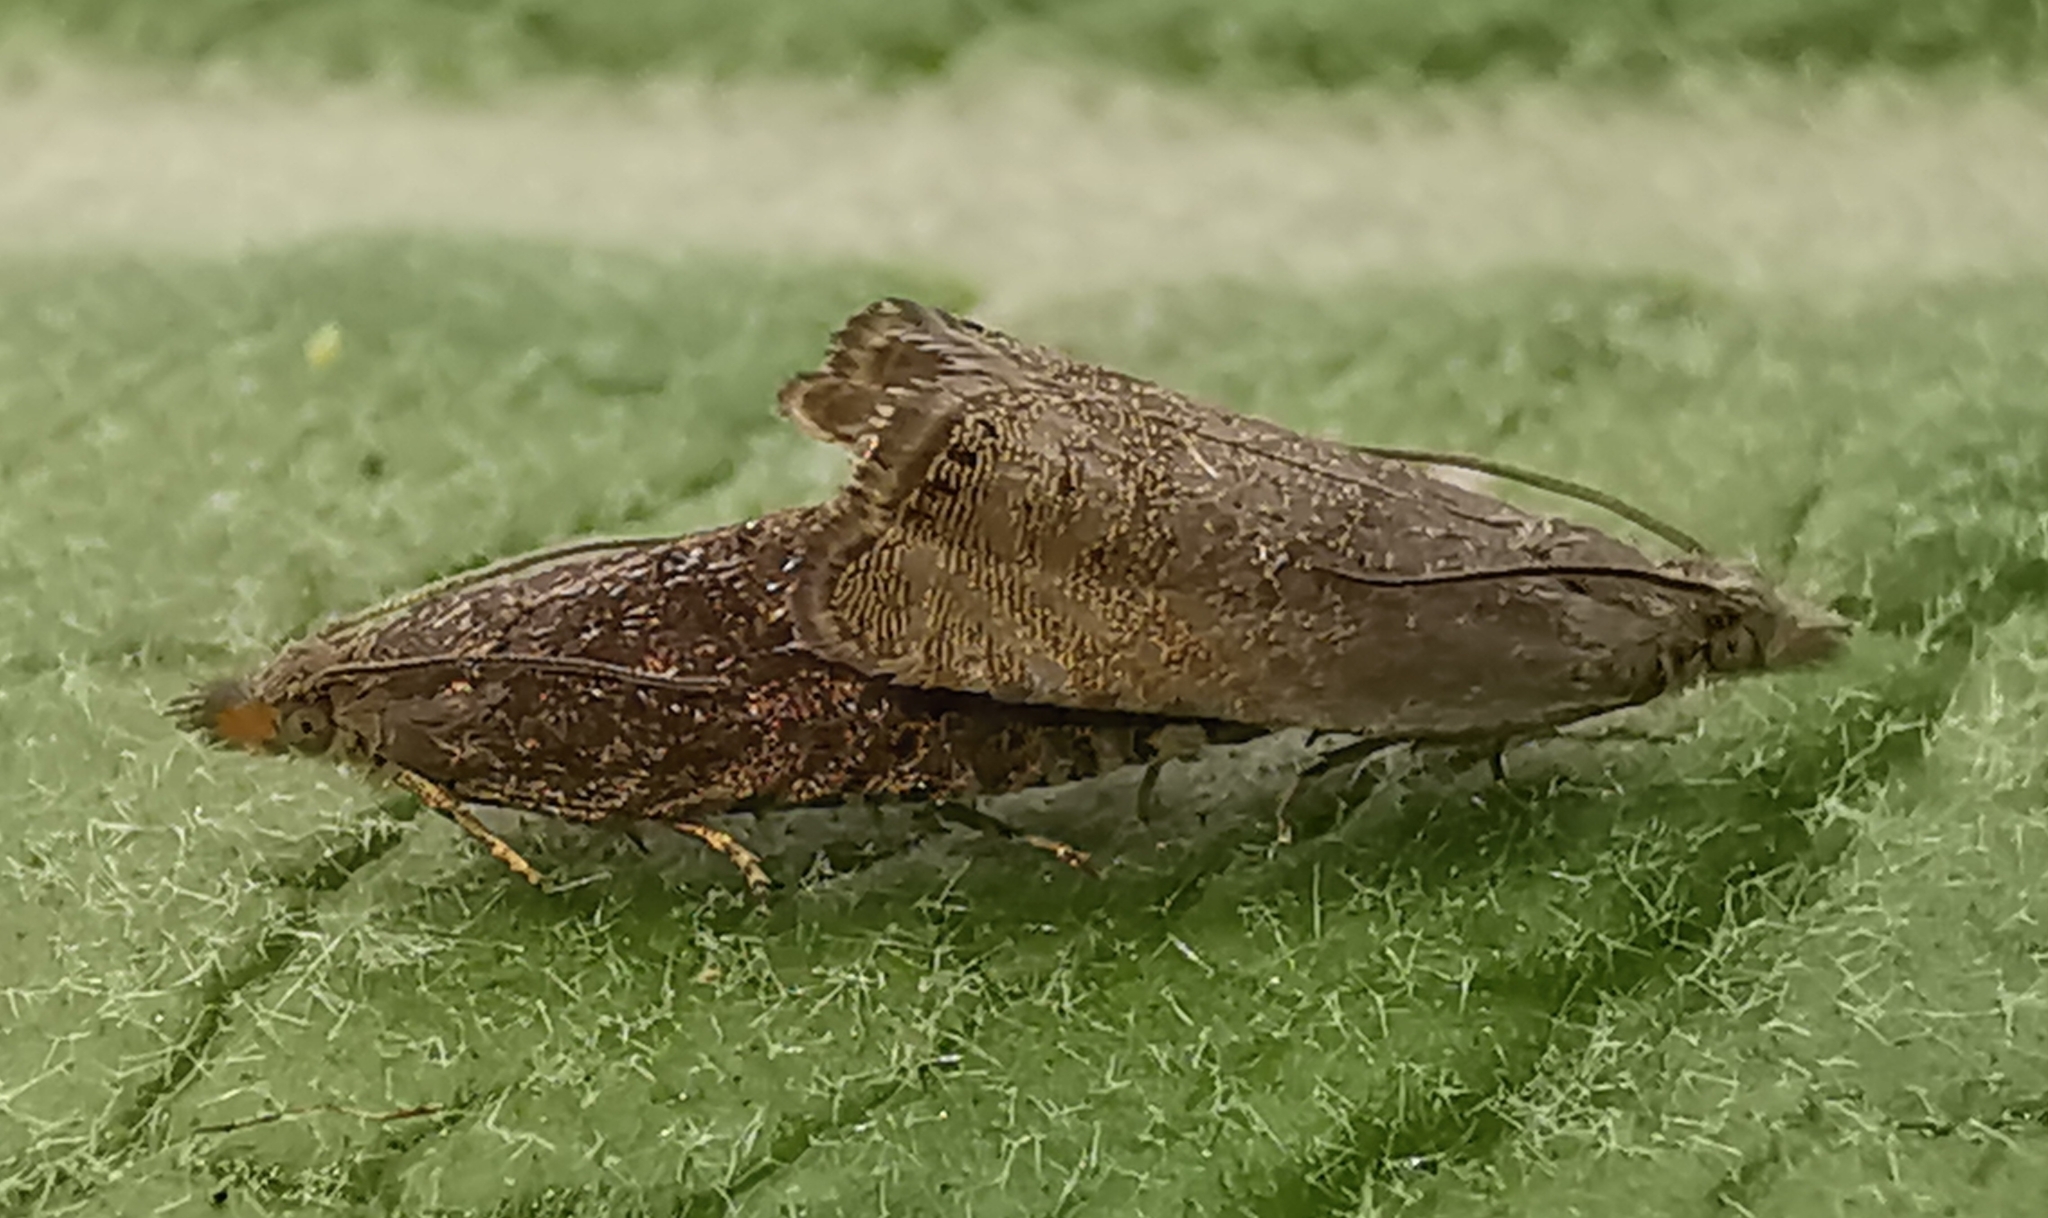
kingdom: Animalia
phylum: Arthropoda
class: Insecta
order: Lepidoptera
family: Tortricidae
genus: Dichrorampha
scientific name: Dichrorampha
